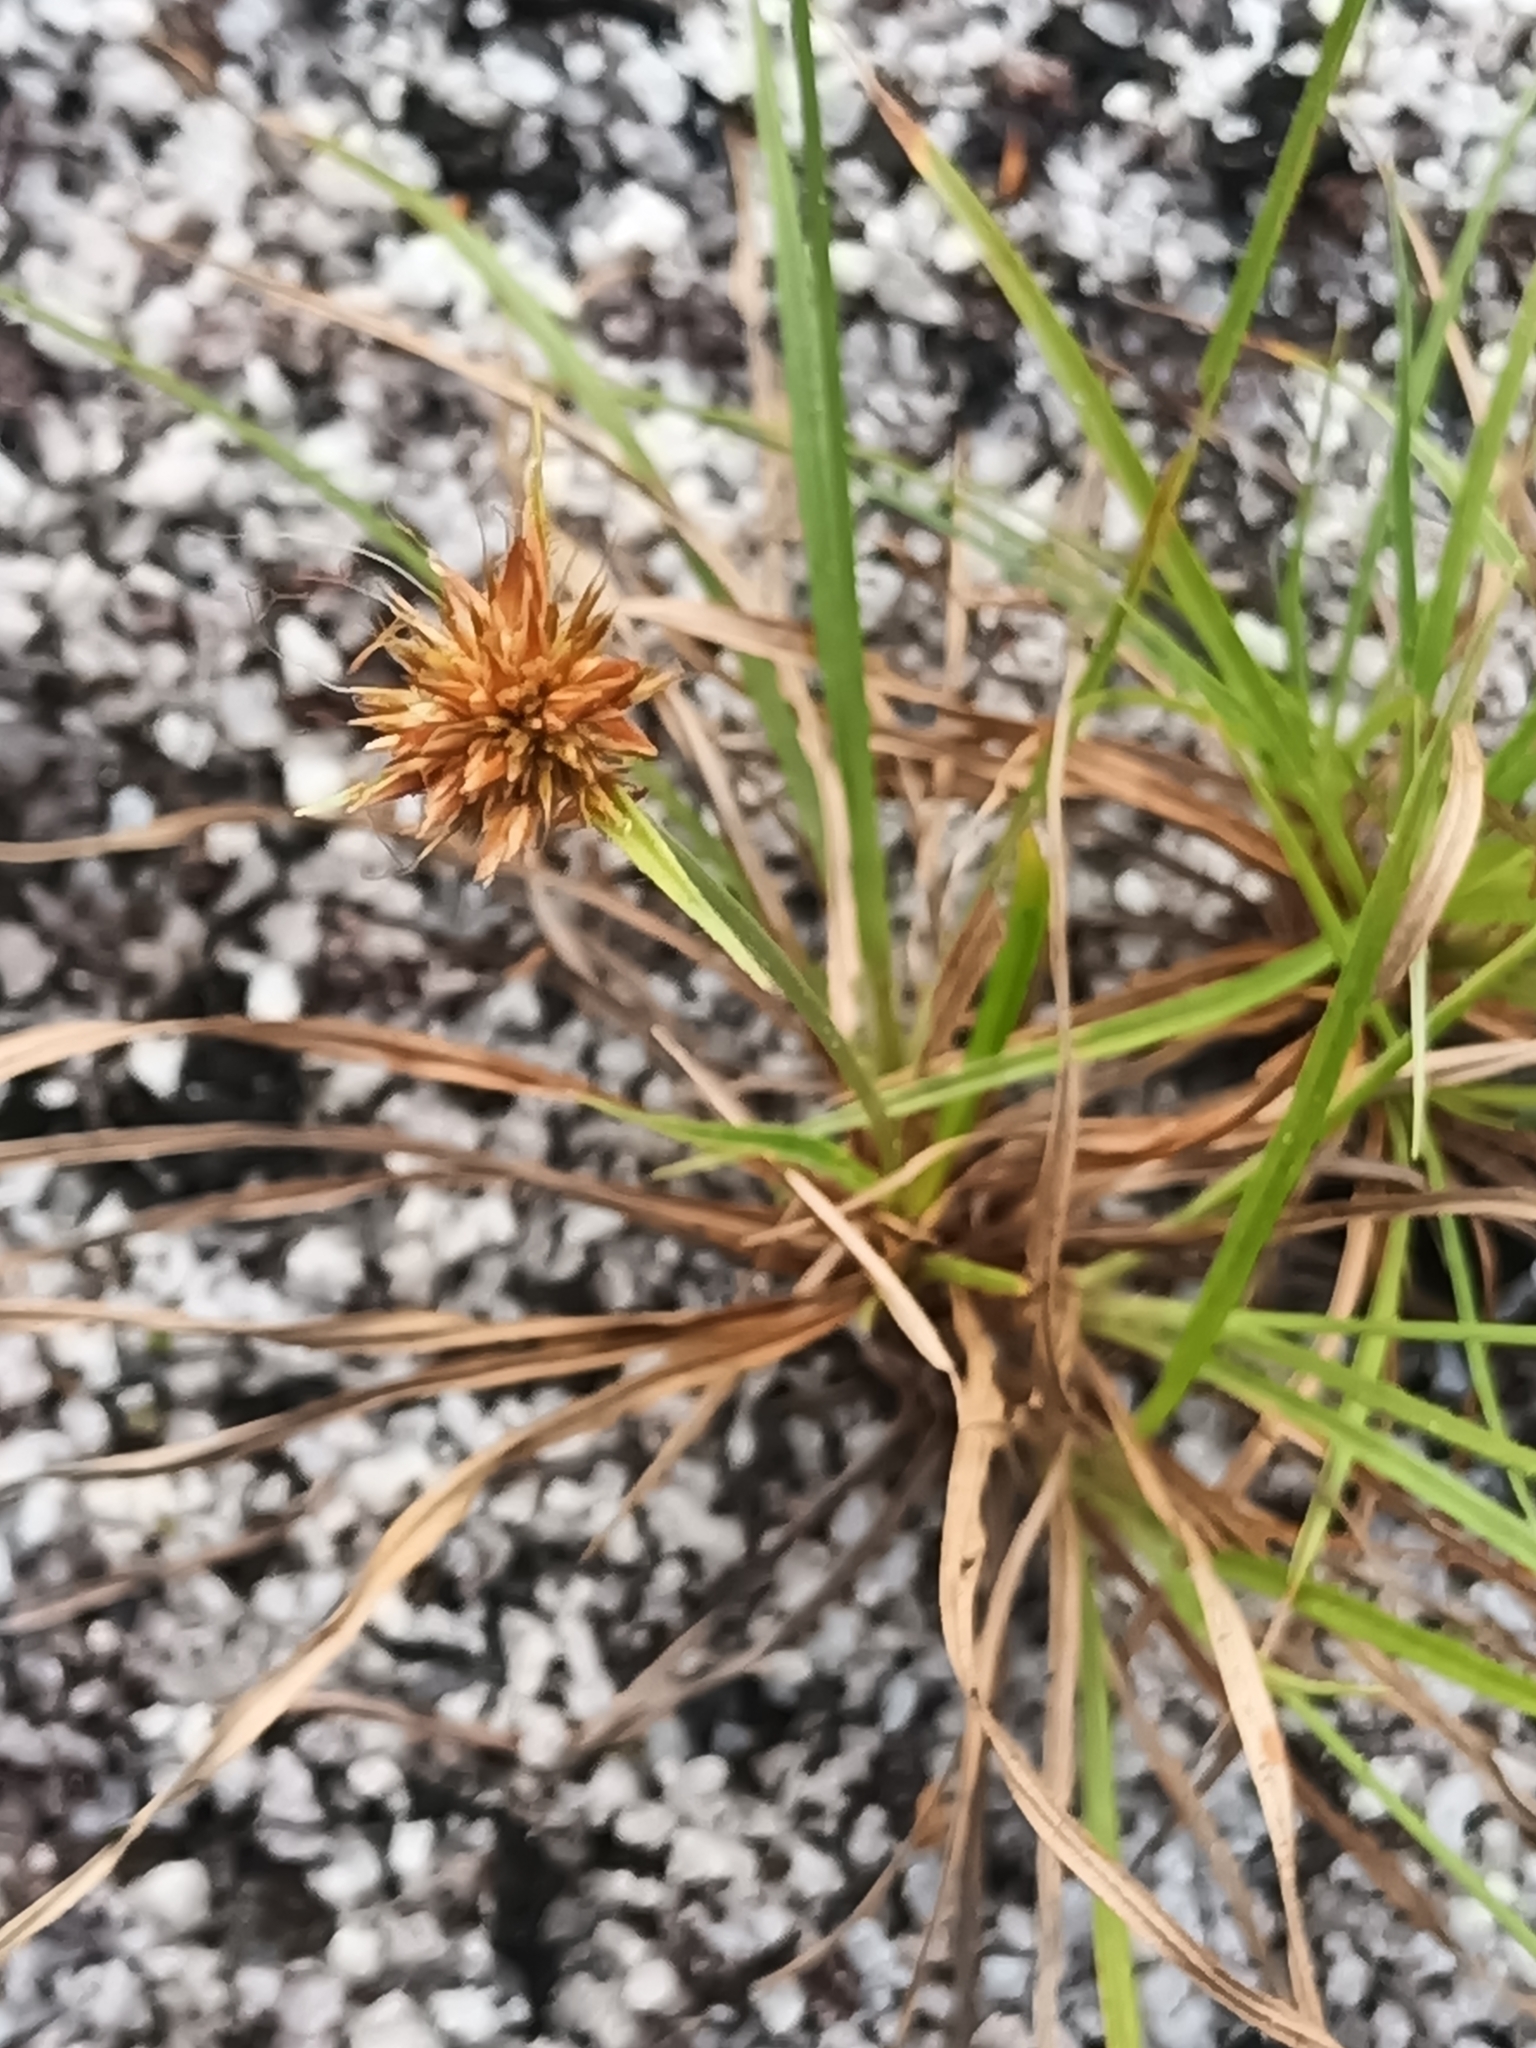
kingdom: Plantae
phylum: Tracheophyta
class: Liliopsida
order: Poales
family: Cyperaceae
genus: Rhynchospora
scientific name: Rhynchospora barbata
